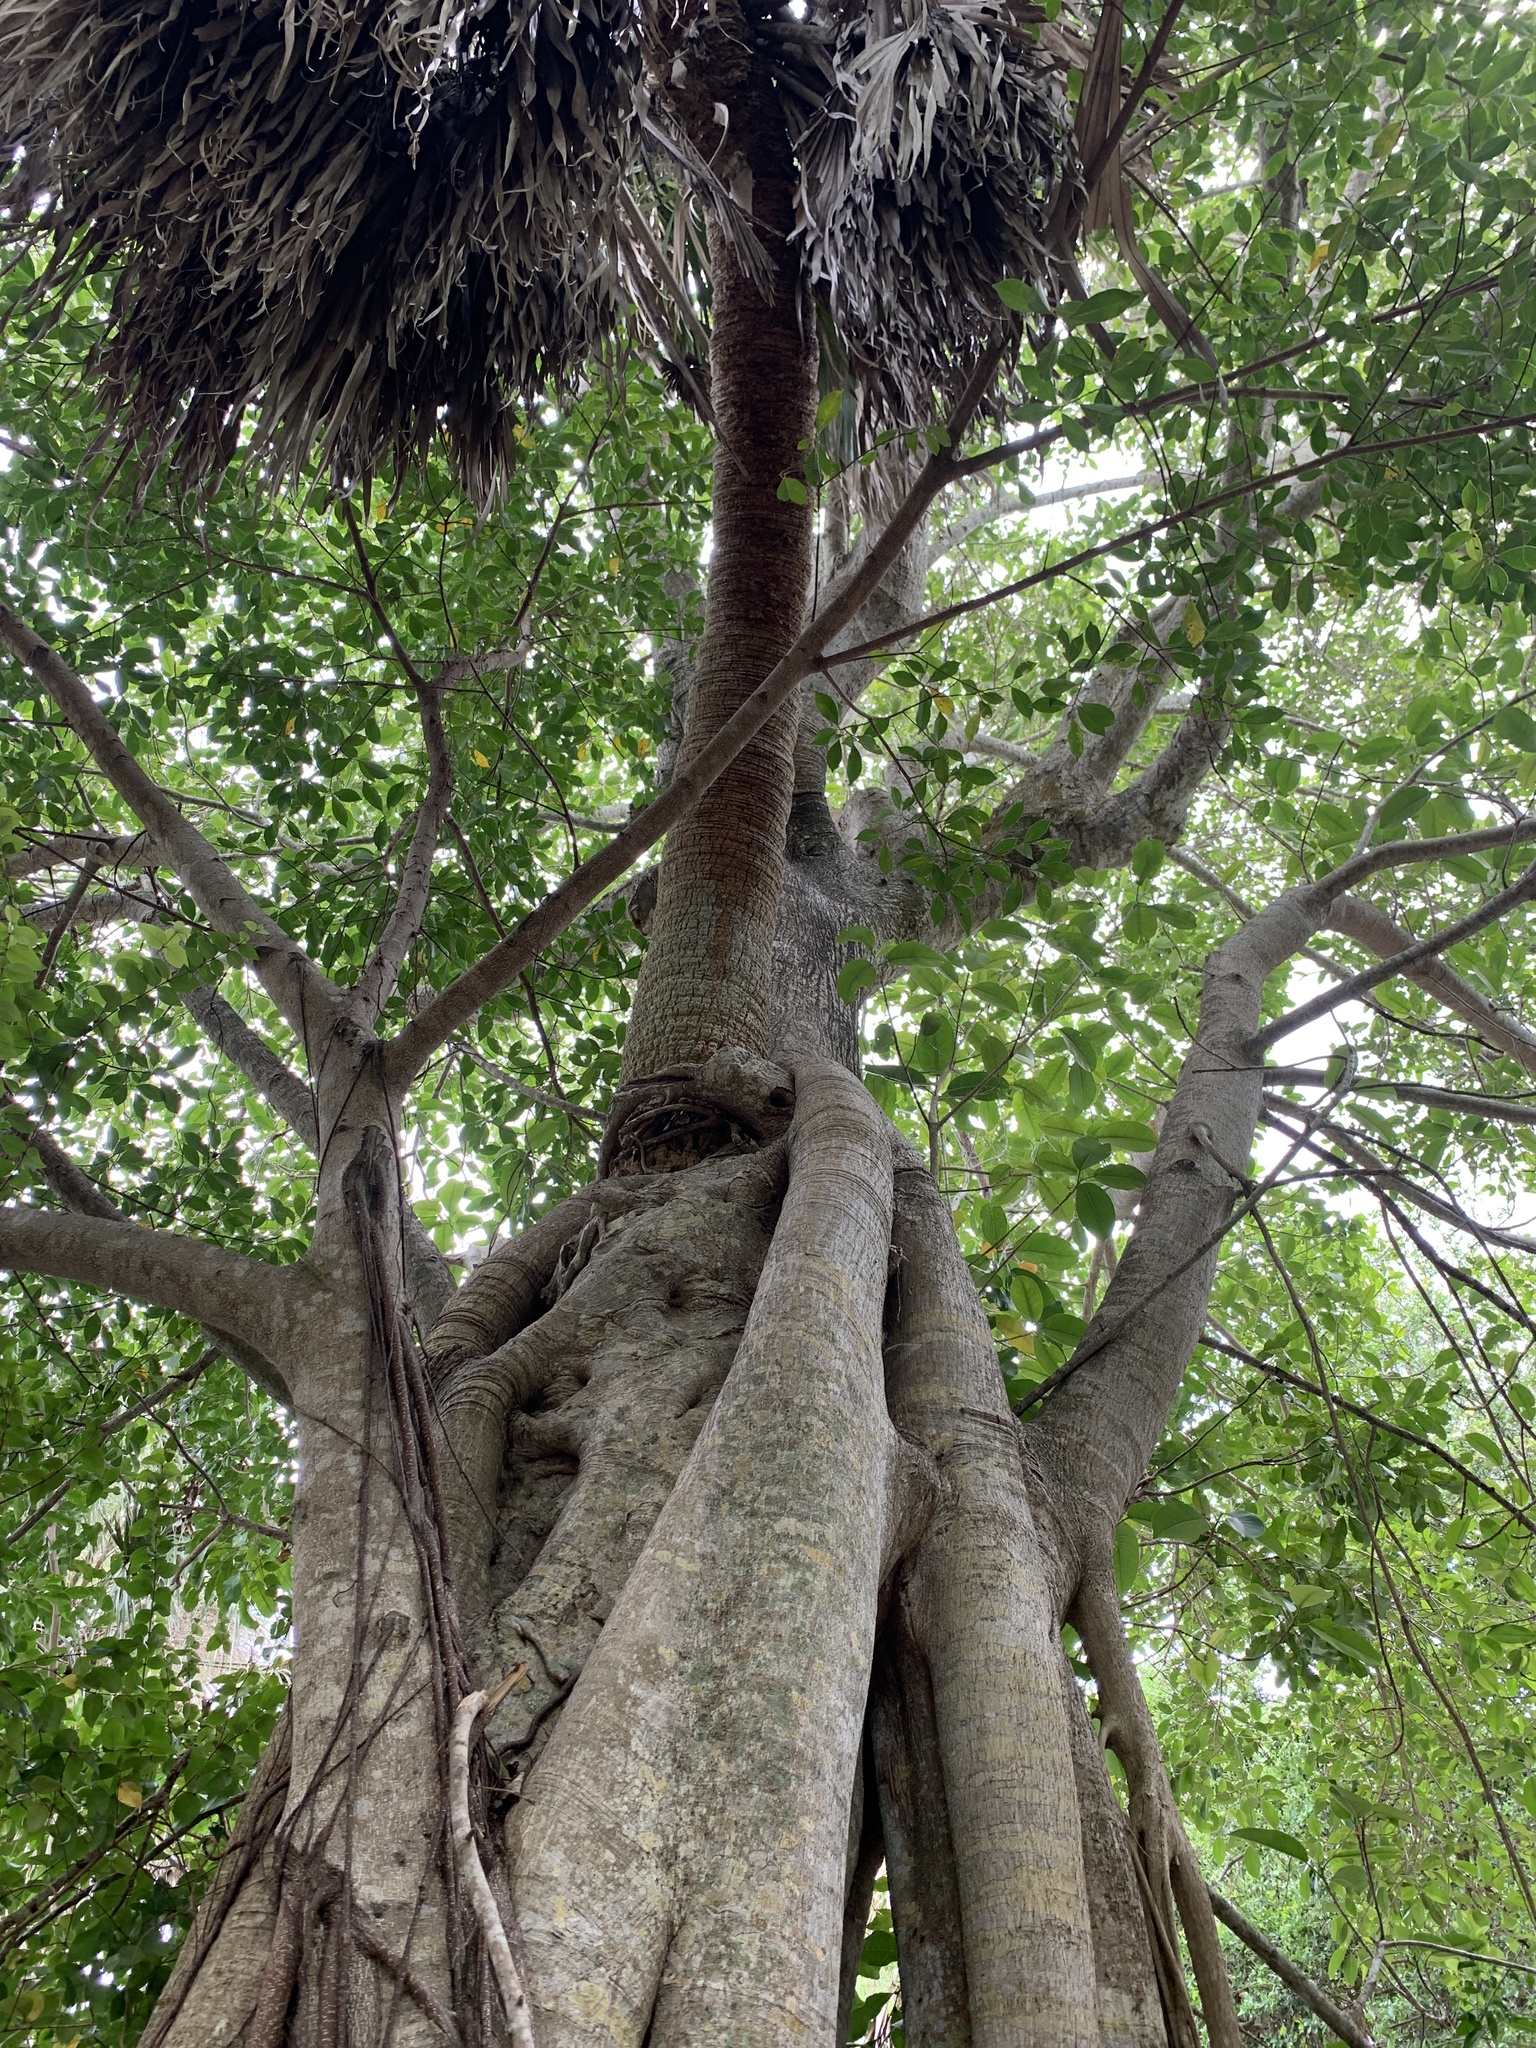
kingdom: Plantae
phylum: Tracheophyta
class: Magnoliopsida
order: Rosales
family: Moraceae
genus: Ficus
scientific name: Ficus aurea
